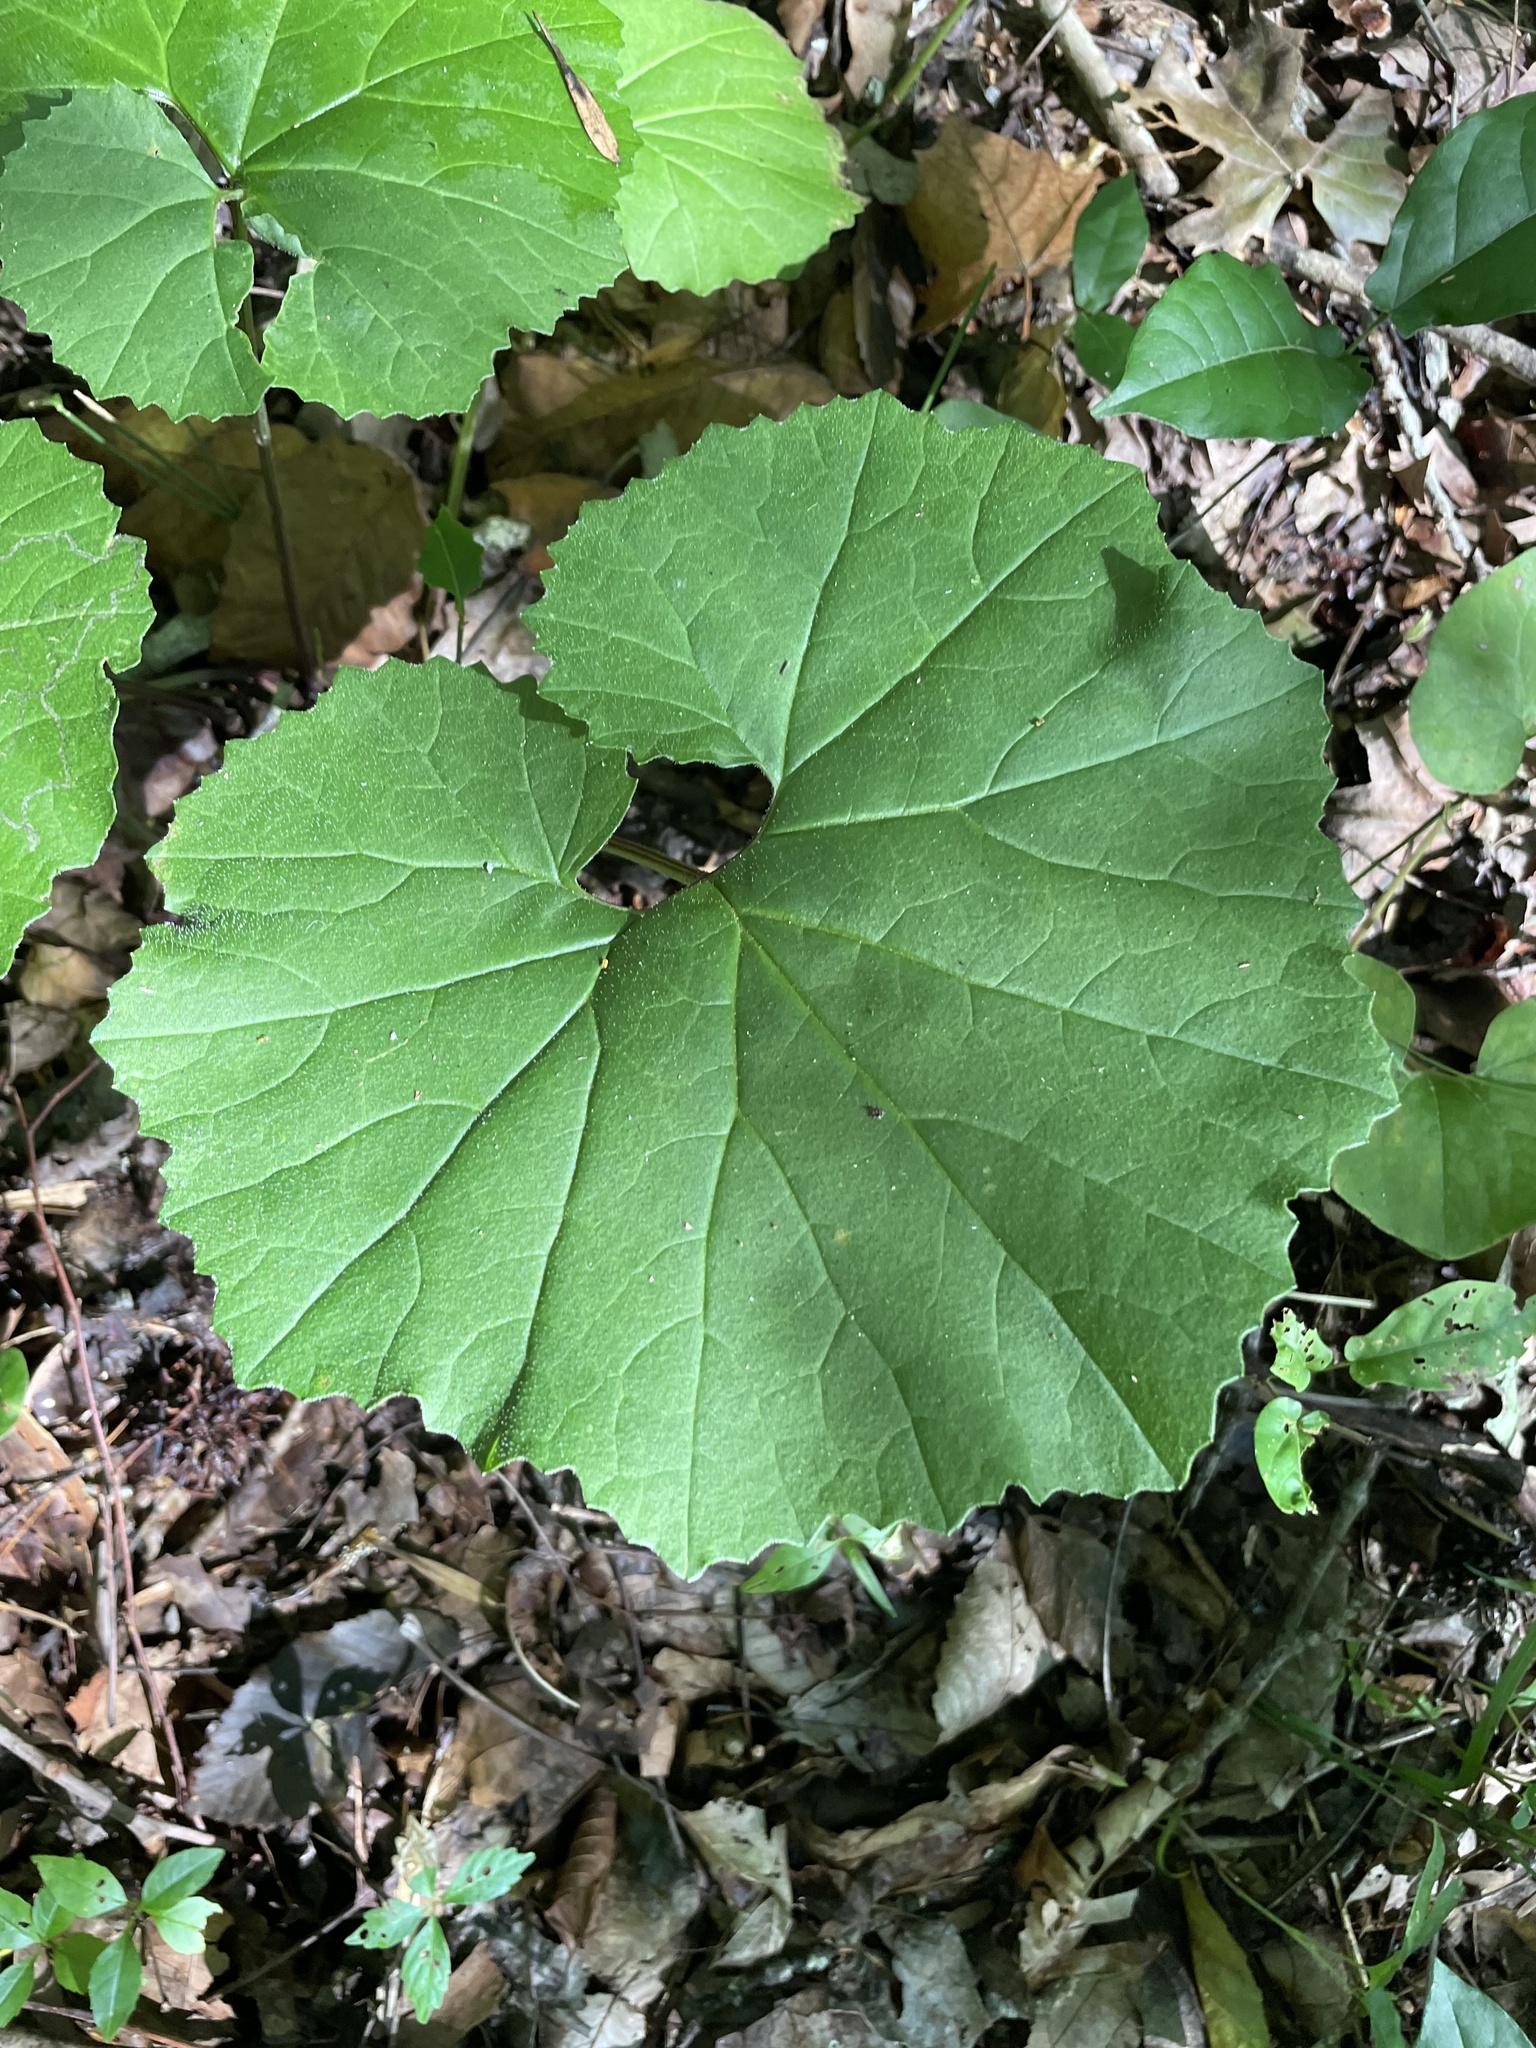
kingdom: Plantae
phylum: Tracheophyta
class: Magnoliopsida
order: Asterales
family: Asteraceae
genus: Arnoglossum
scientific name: Arnoglossum reniforme
